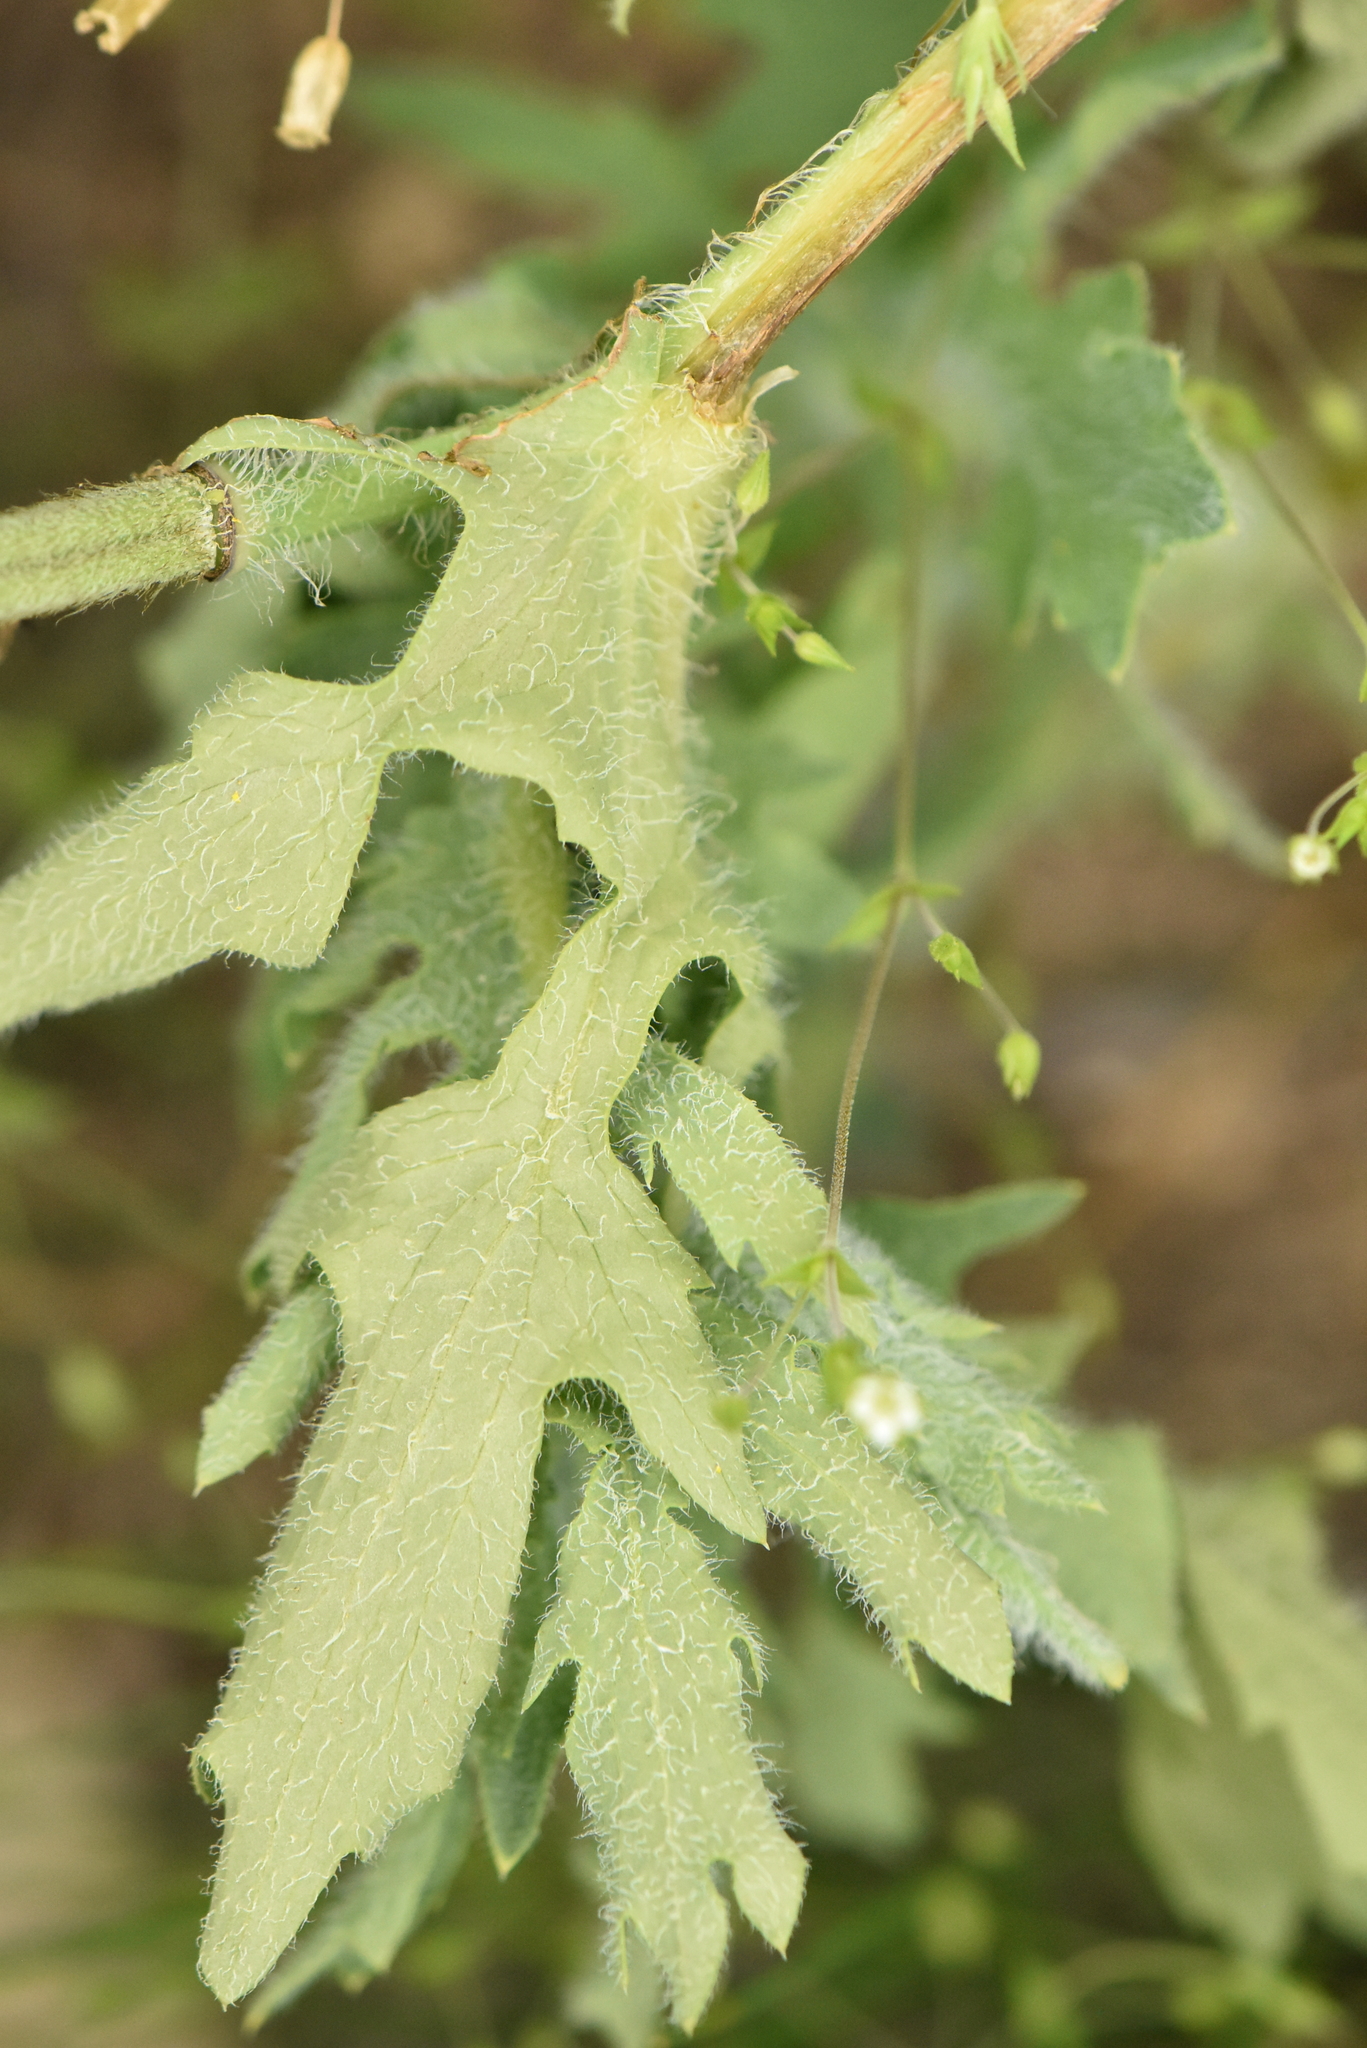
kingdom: Plantae
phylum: Tracheophyta
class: Magnoliopsida
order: Ranunculales
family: Papaveraceae
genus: Glaucium
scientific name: Glaucium corniculatum
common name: Red horned-poppy
